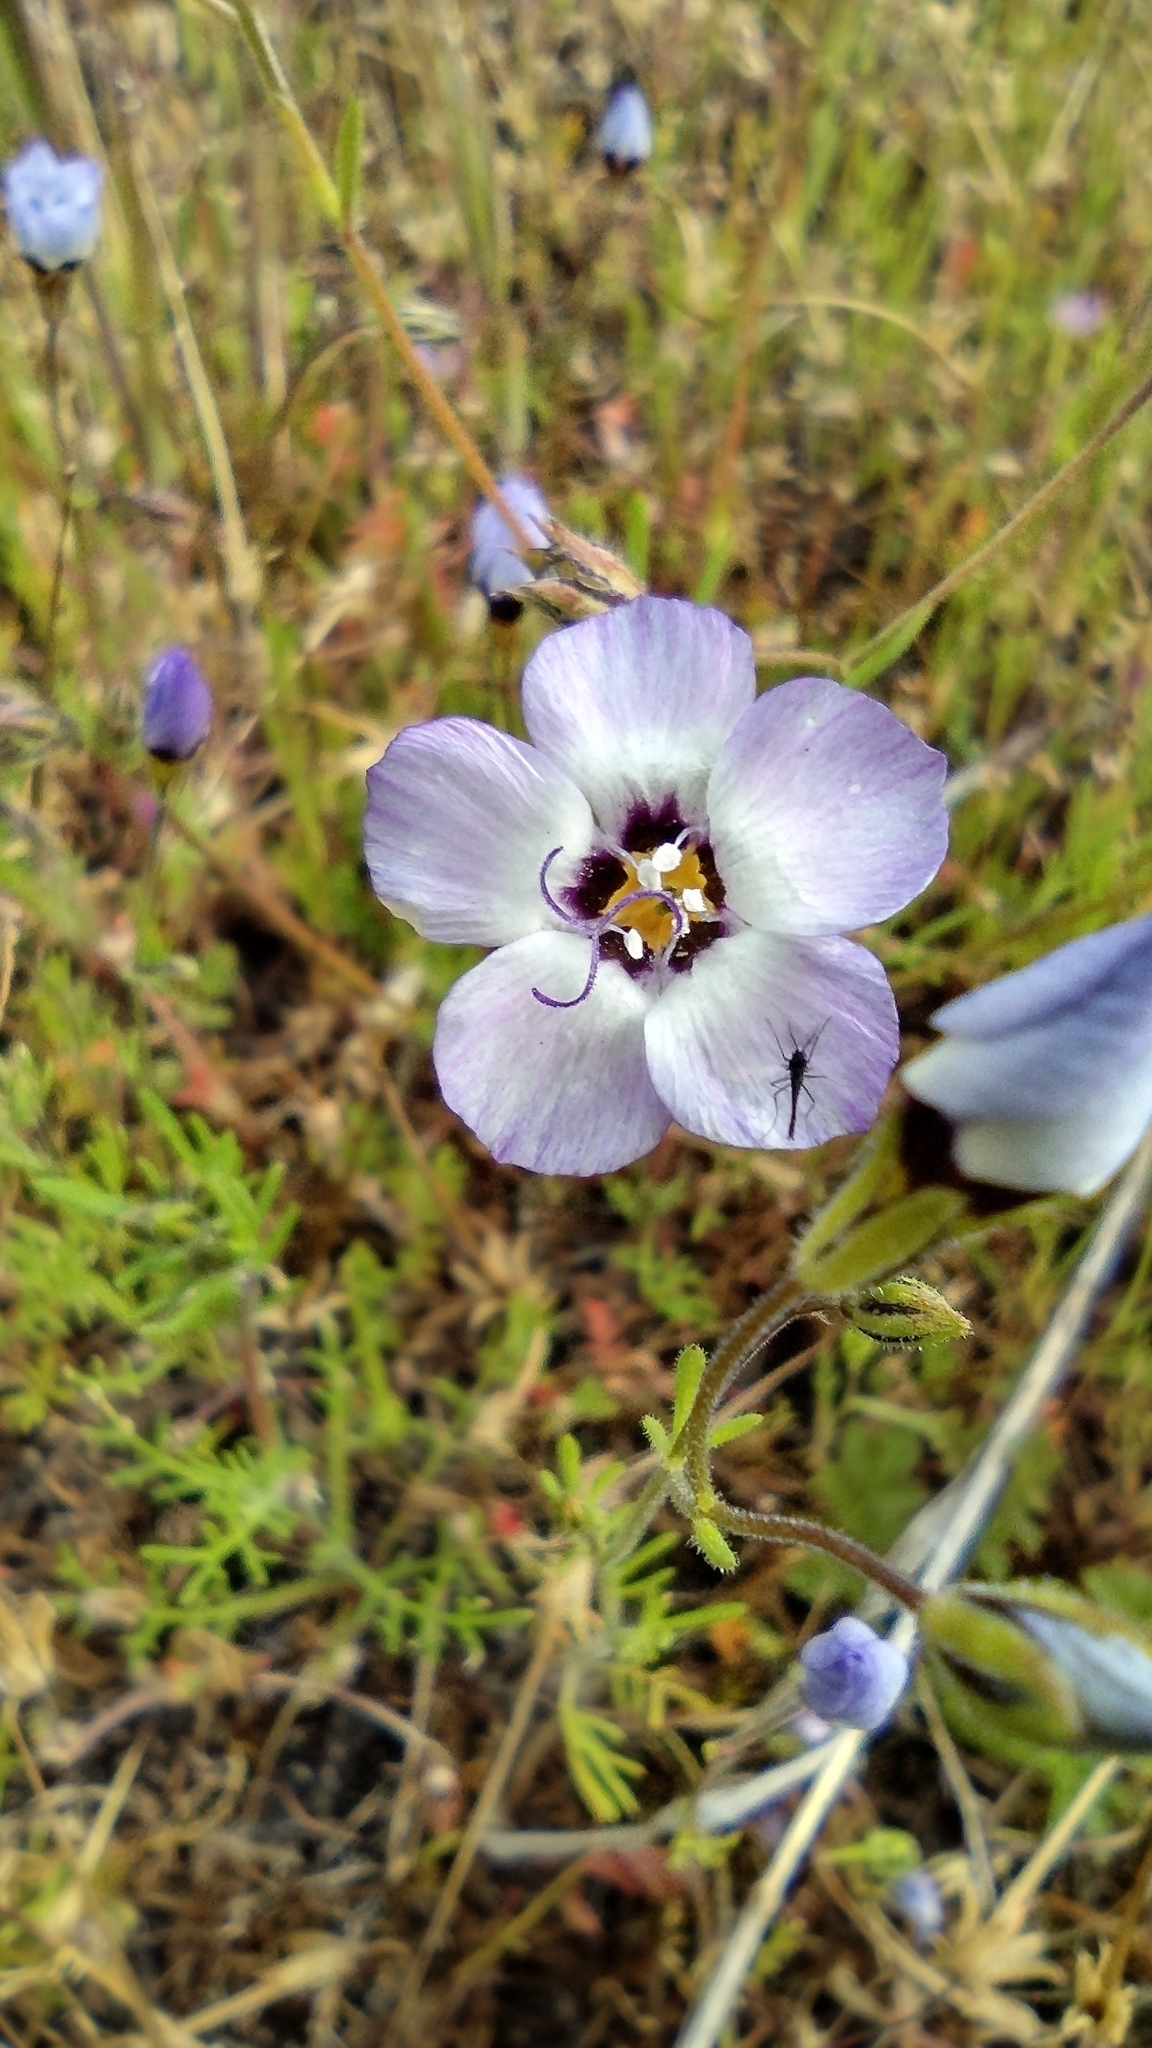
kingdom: Plantae
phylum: Tracheophyta
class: Magnoliopsida
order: Ericales
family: Polemoniaceae
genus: Gilia
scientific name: Gilia tricolor
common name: Bird's-eyes
